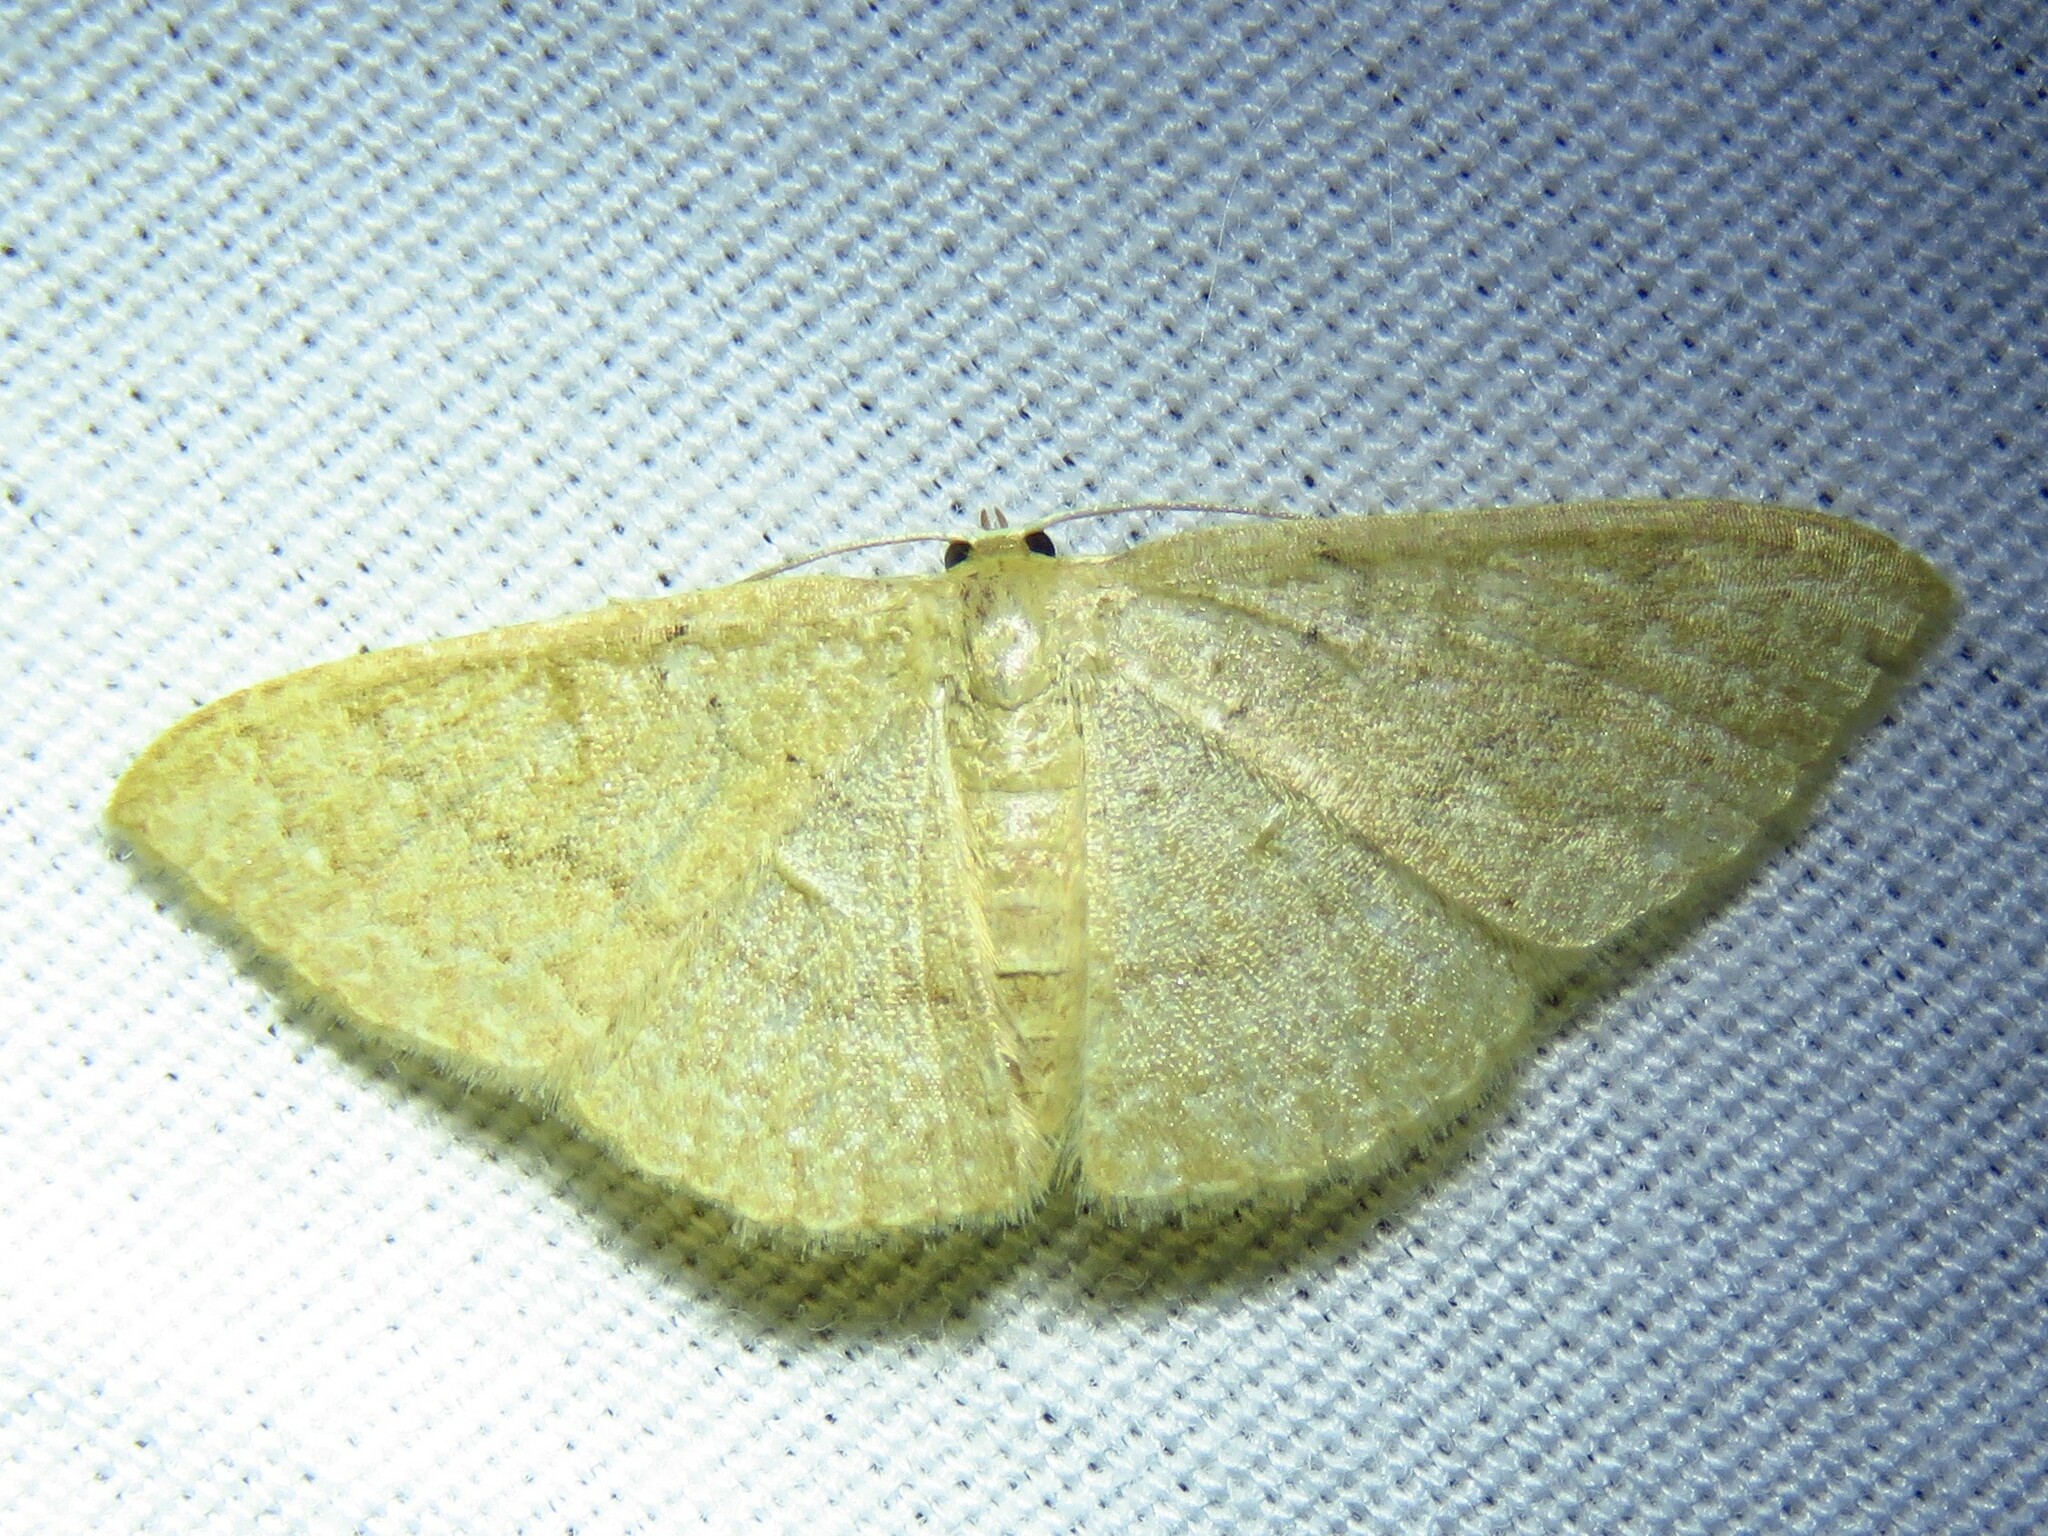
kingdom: Animalia
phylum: Arthropoda
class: Insecta
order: Lepidoptera
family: Geometridae
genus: Pleuroprucha
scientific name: Pleuroprucha insulsaria
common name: Common tan wave
